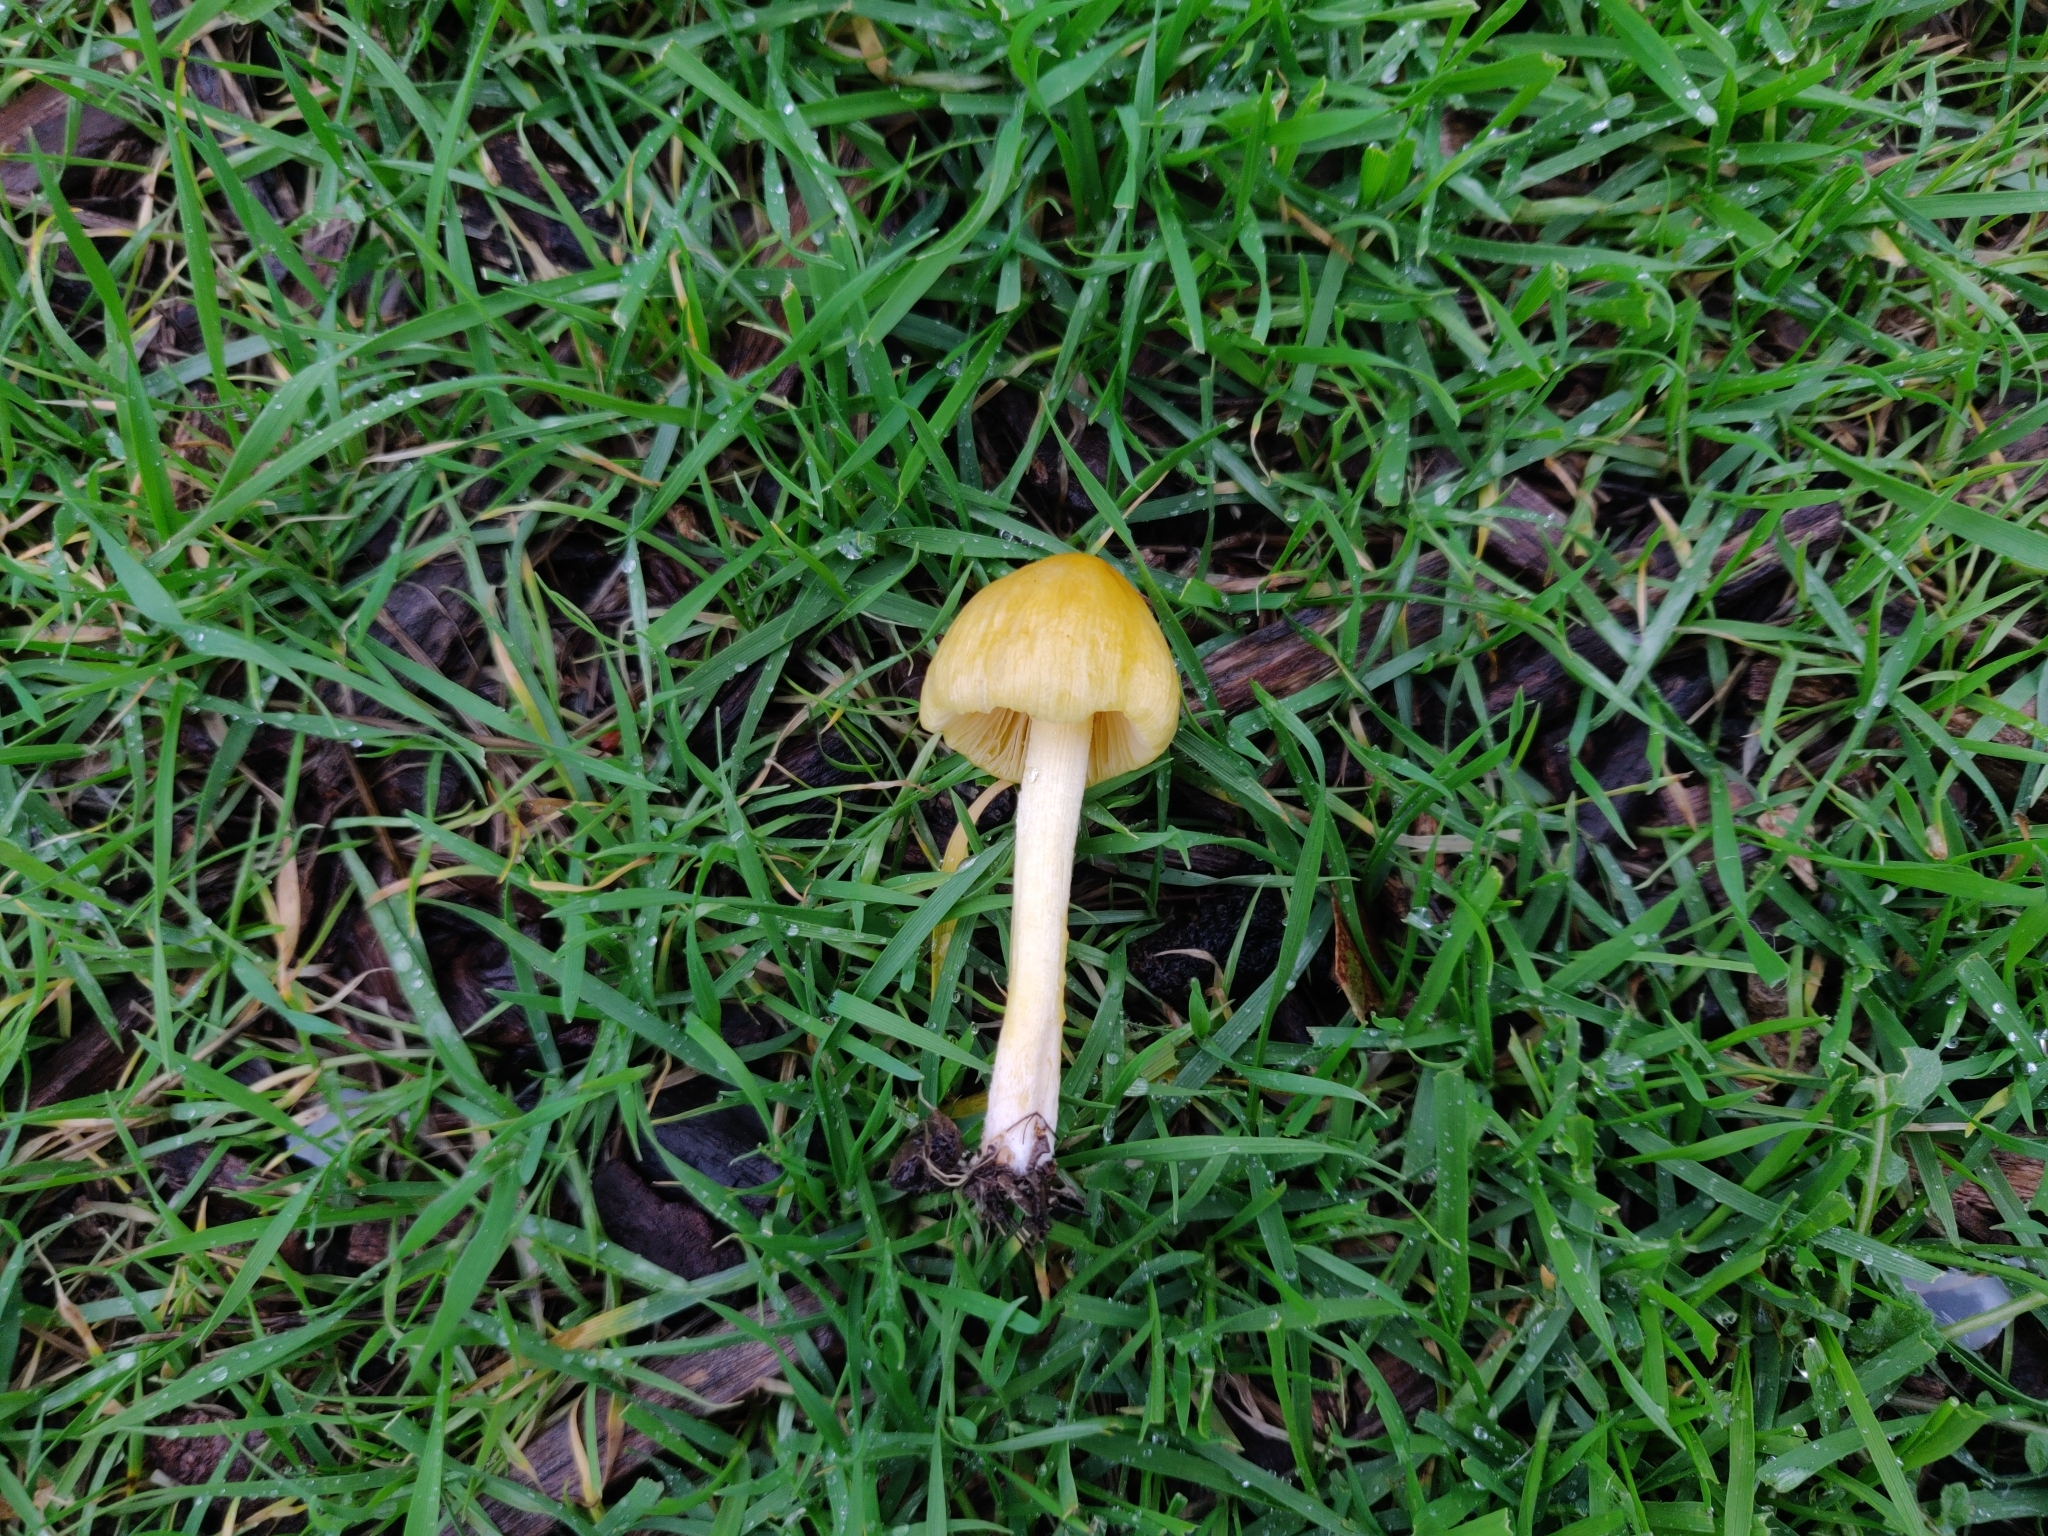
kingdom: Fungi
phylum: Basidiomycota
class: Agaricomycetes
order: Agaricales
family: Bolbitiaceae
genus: Bolbitius
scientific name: Bolbitius titubans
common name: Yellow fieldcap
